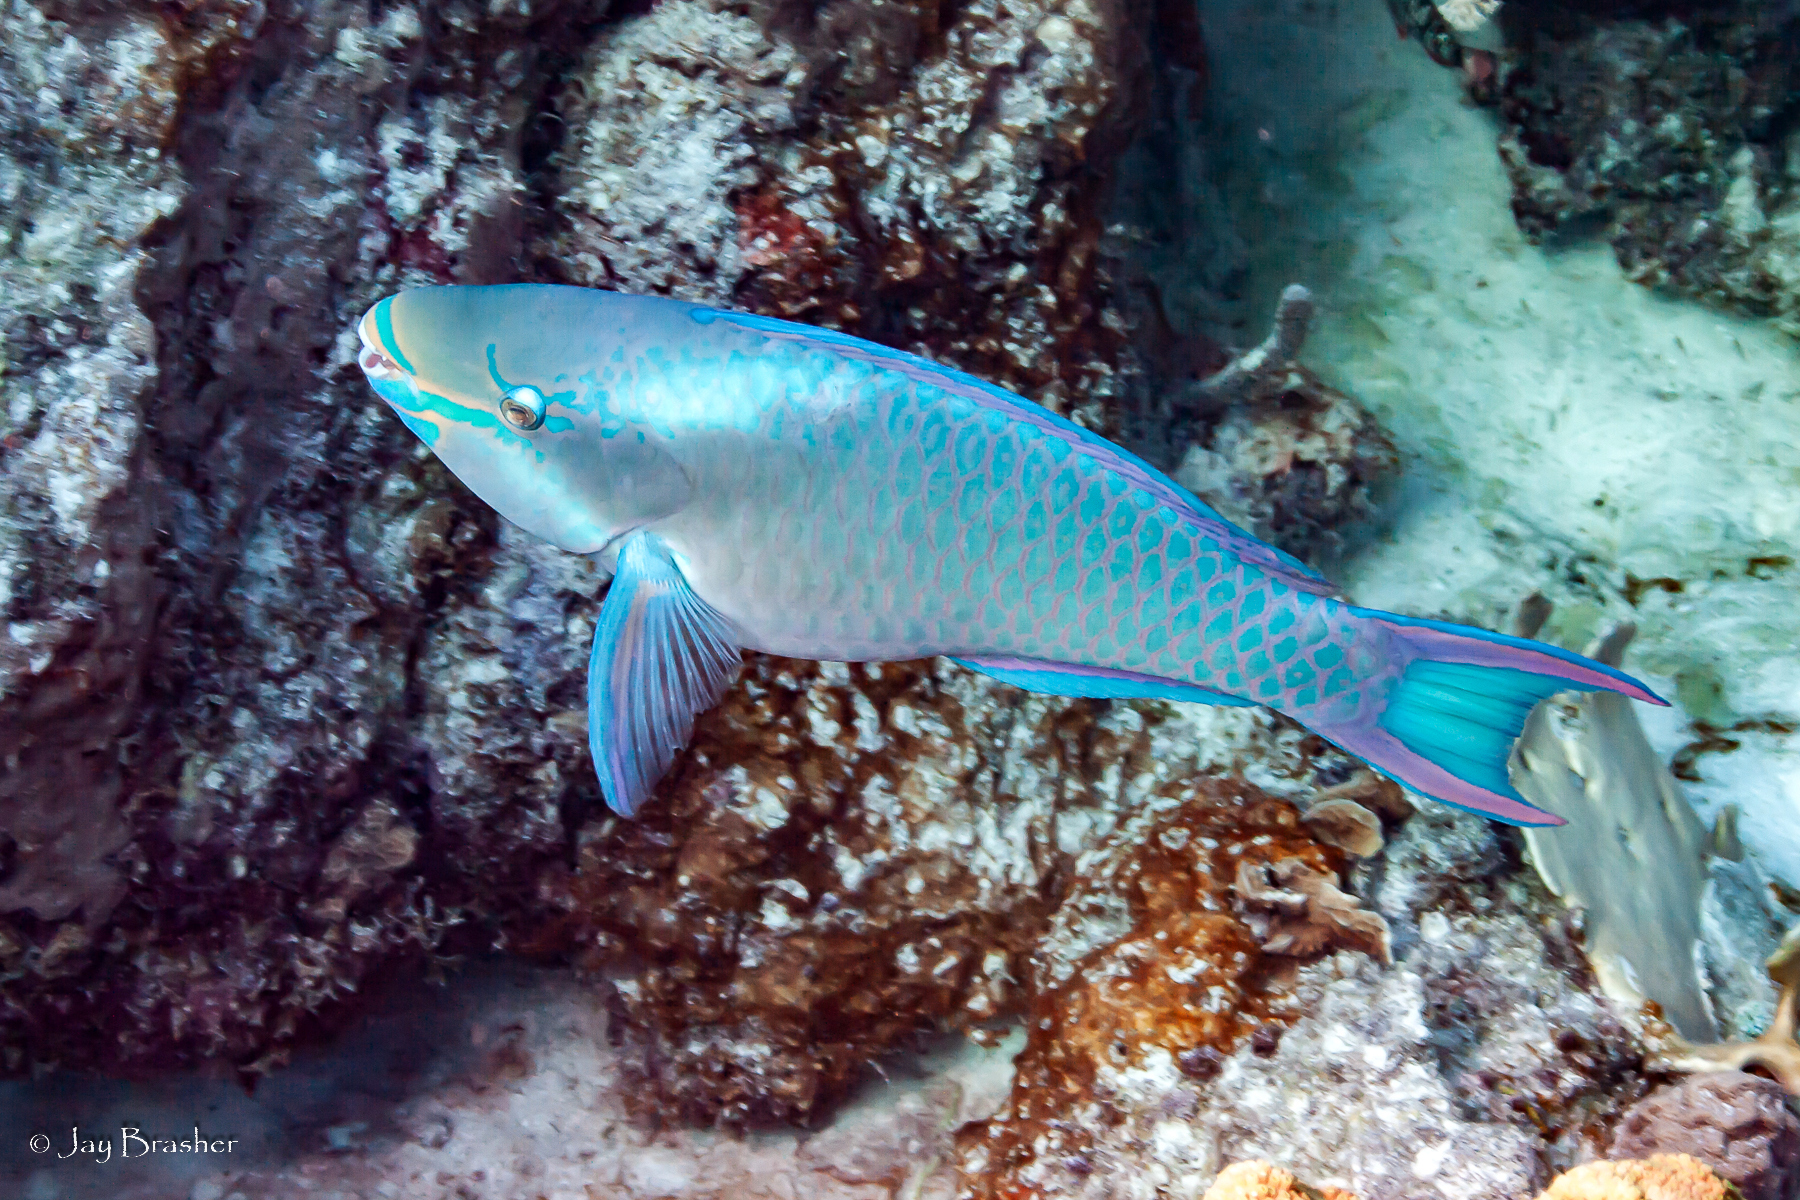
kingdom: Animalia
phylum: Chordata
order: Perciformes
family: Scaridae
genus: Scarus
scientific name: Scarus vetula
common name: Queen parrotfish
